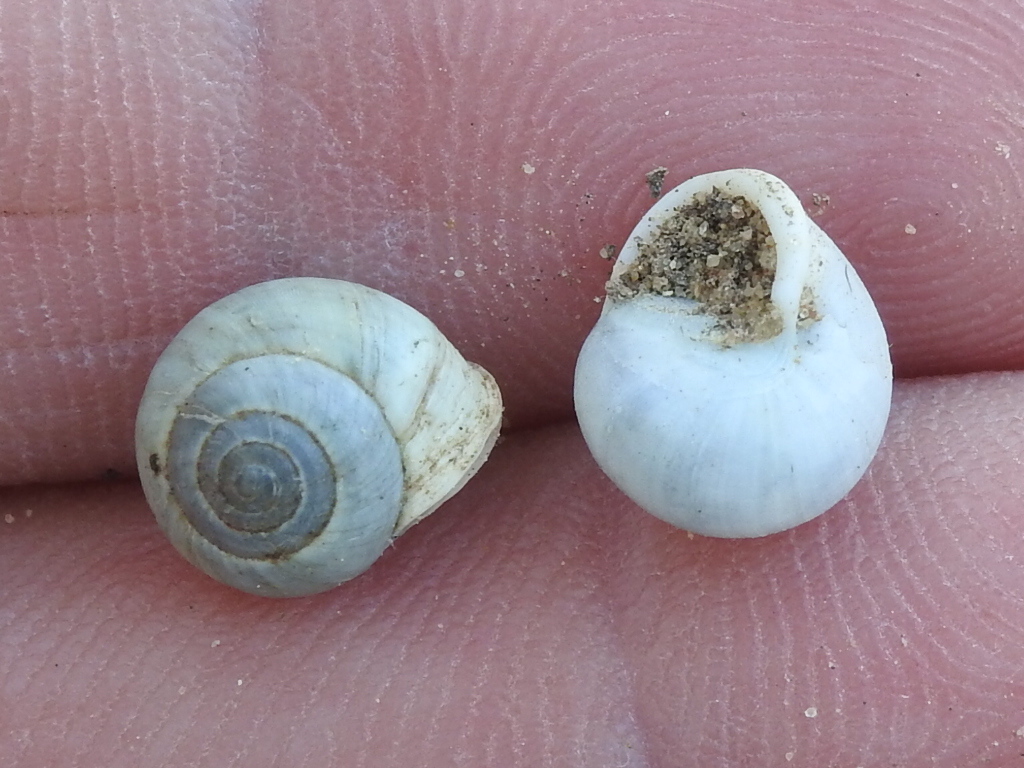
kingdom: Animalia
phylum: Mollusca
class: Gastropoda
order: Cycloneritida
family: Helicinidae
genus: Helicina
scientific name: Helicina orbiculata
